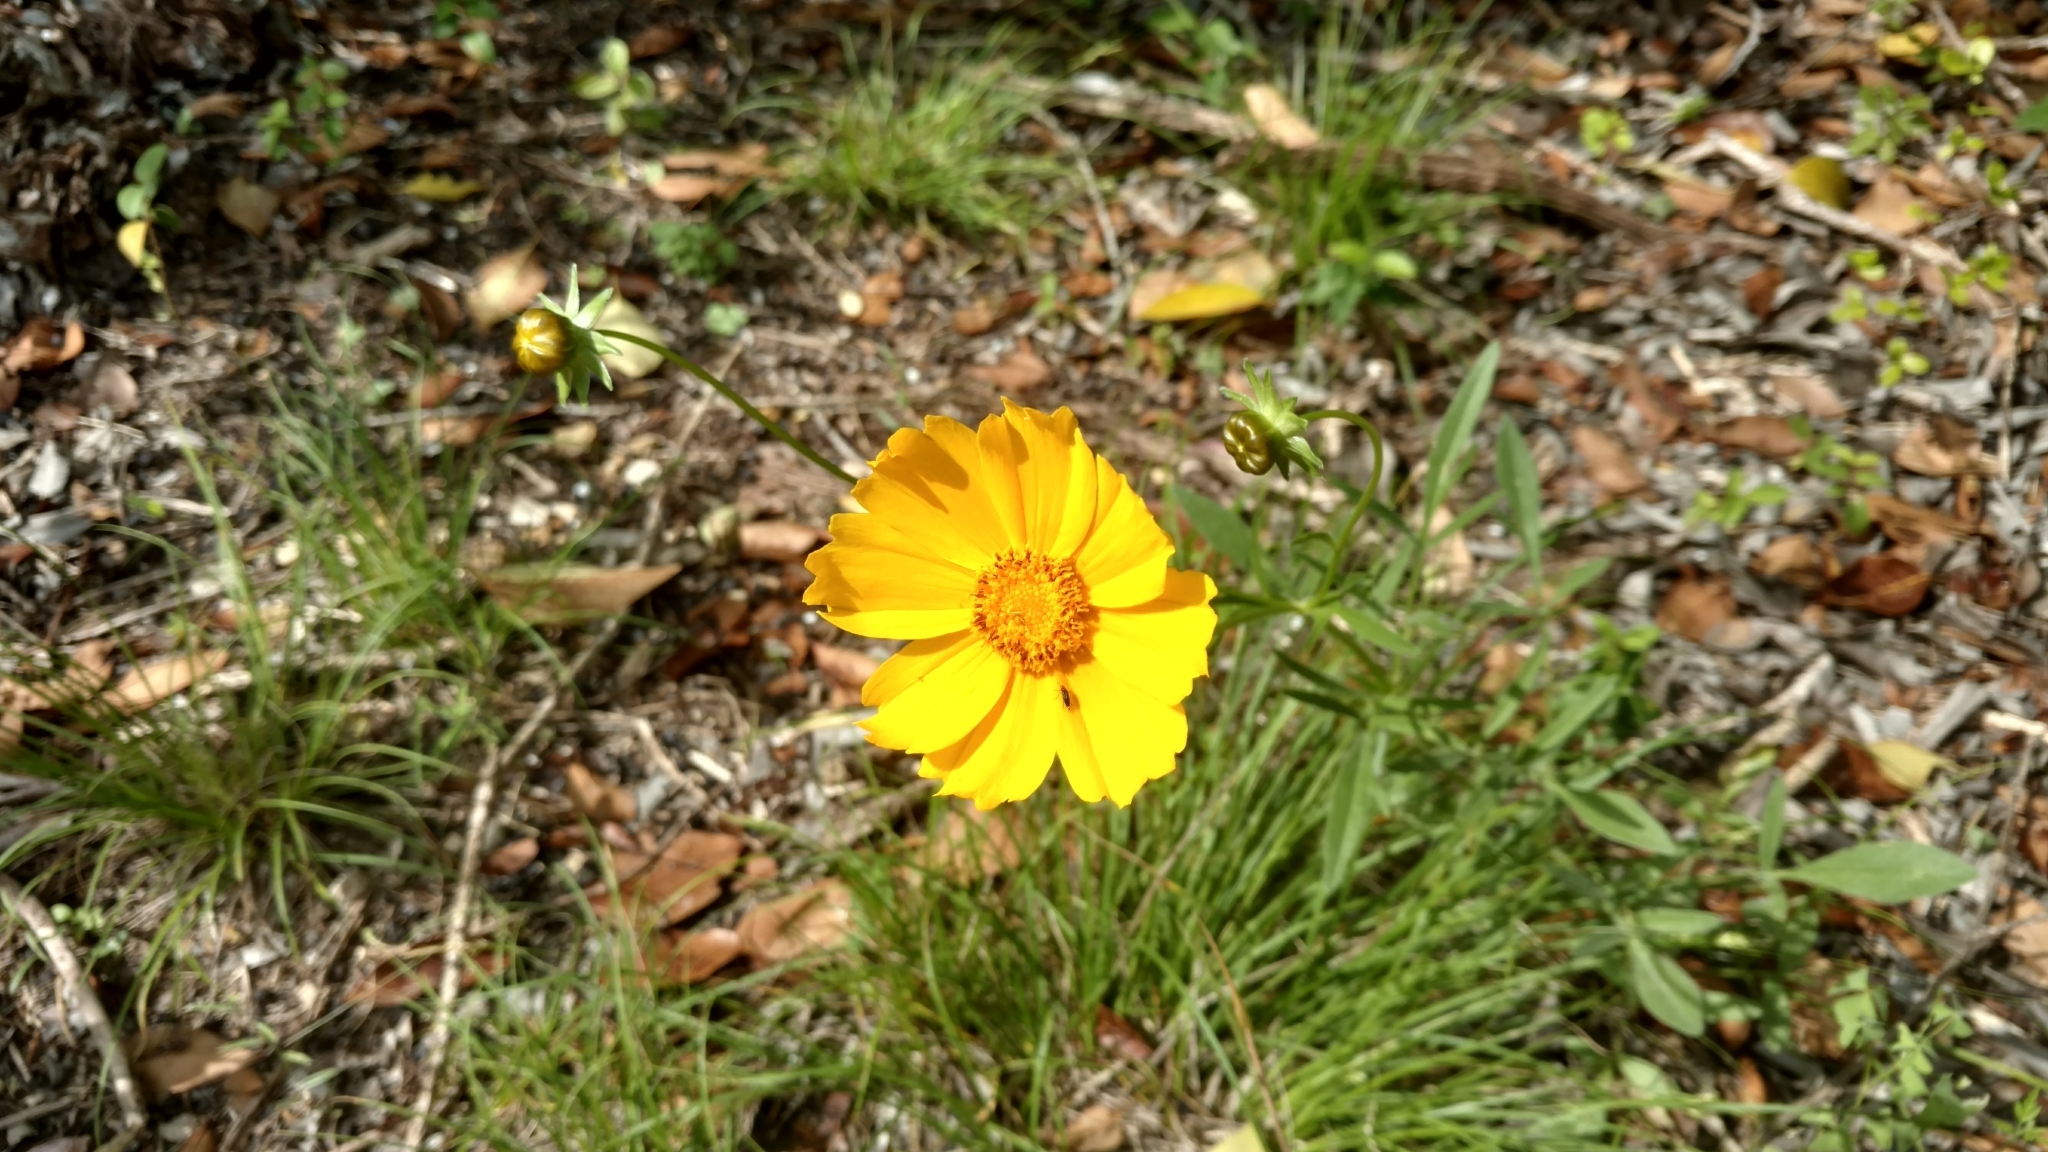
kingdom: Plantae
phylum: Tracheophyta
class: Magnoliopsida
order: Asterales
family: Asteraceae
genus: Coreopsis
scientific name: Coreopsis lanceolata
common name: Garden coreopsis
